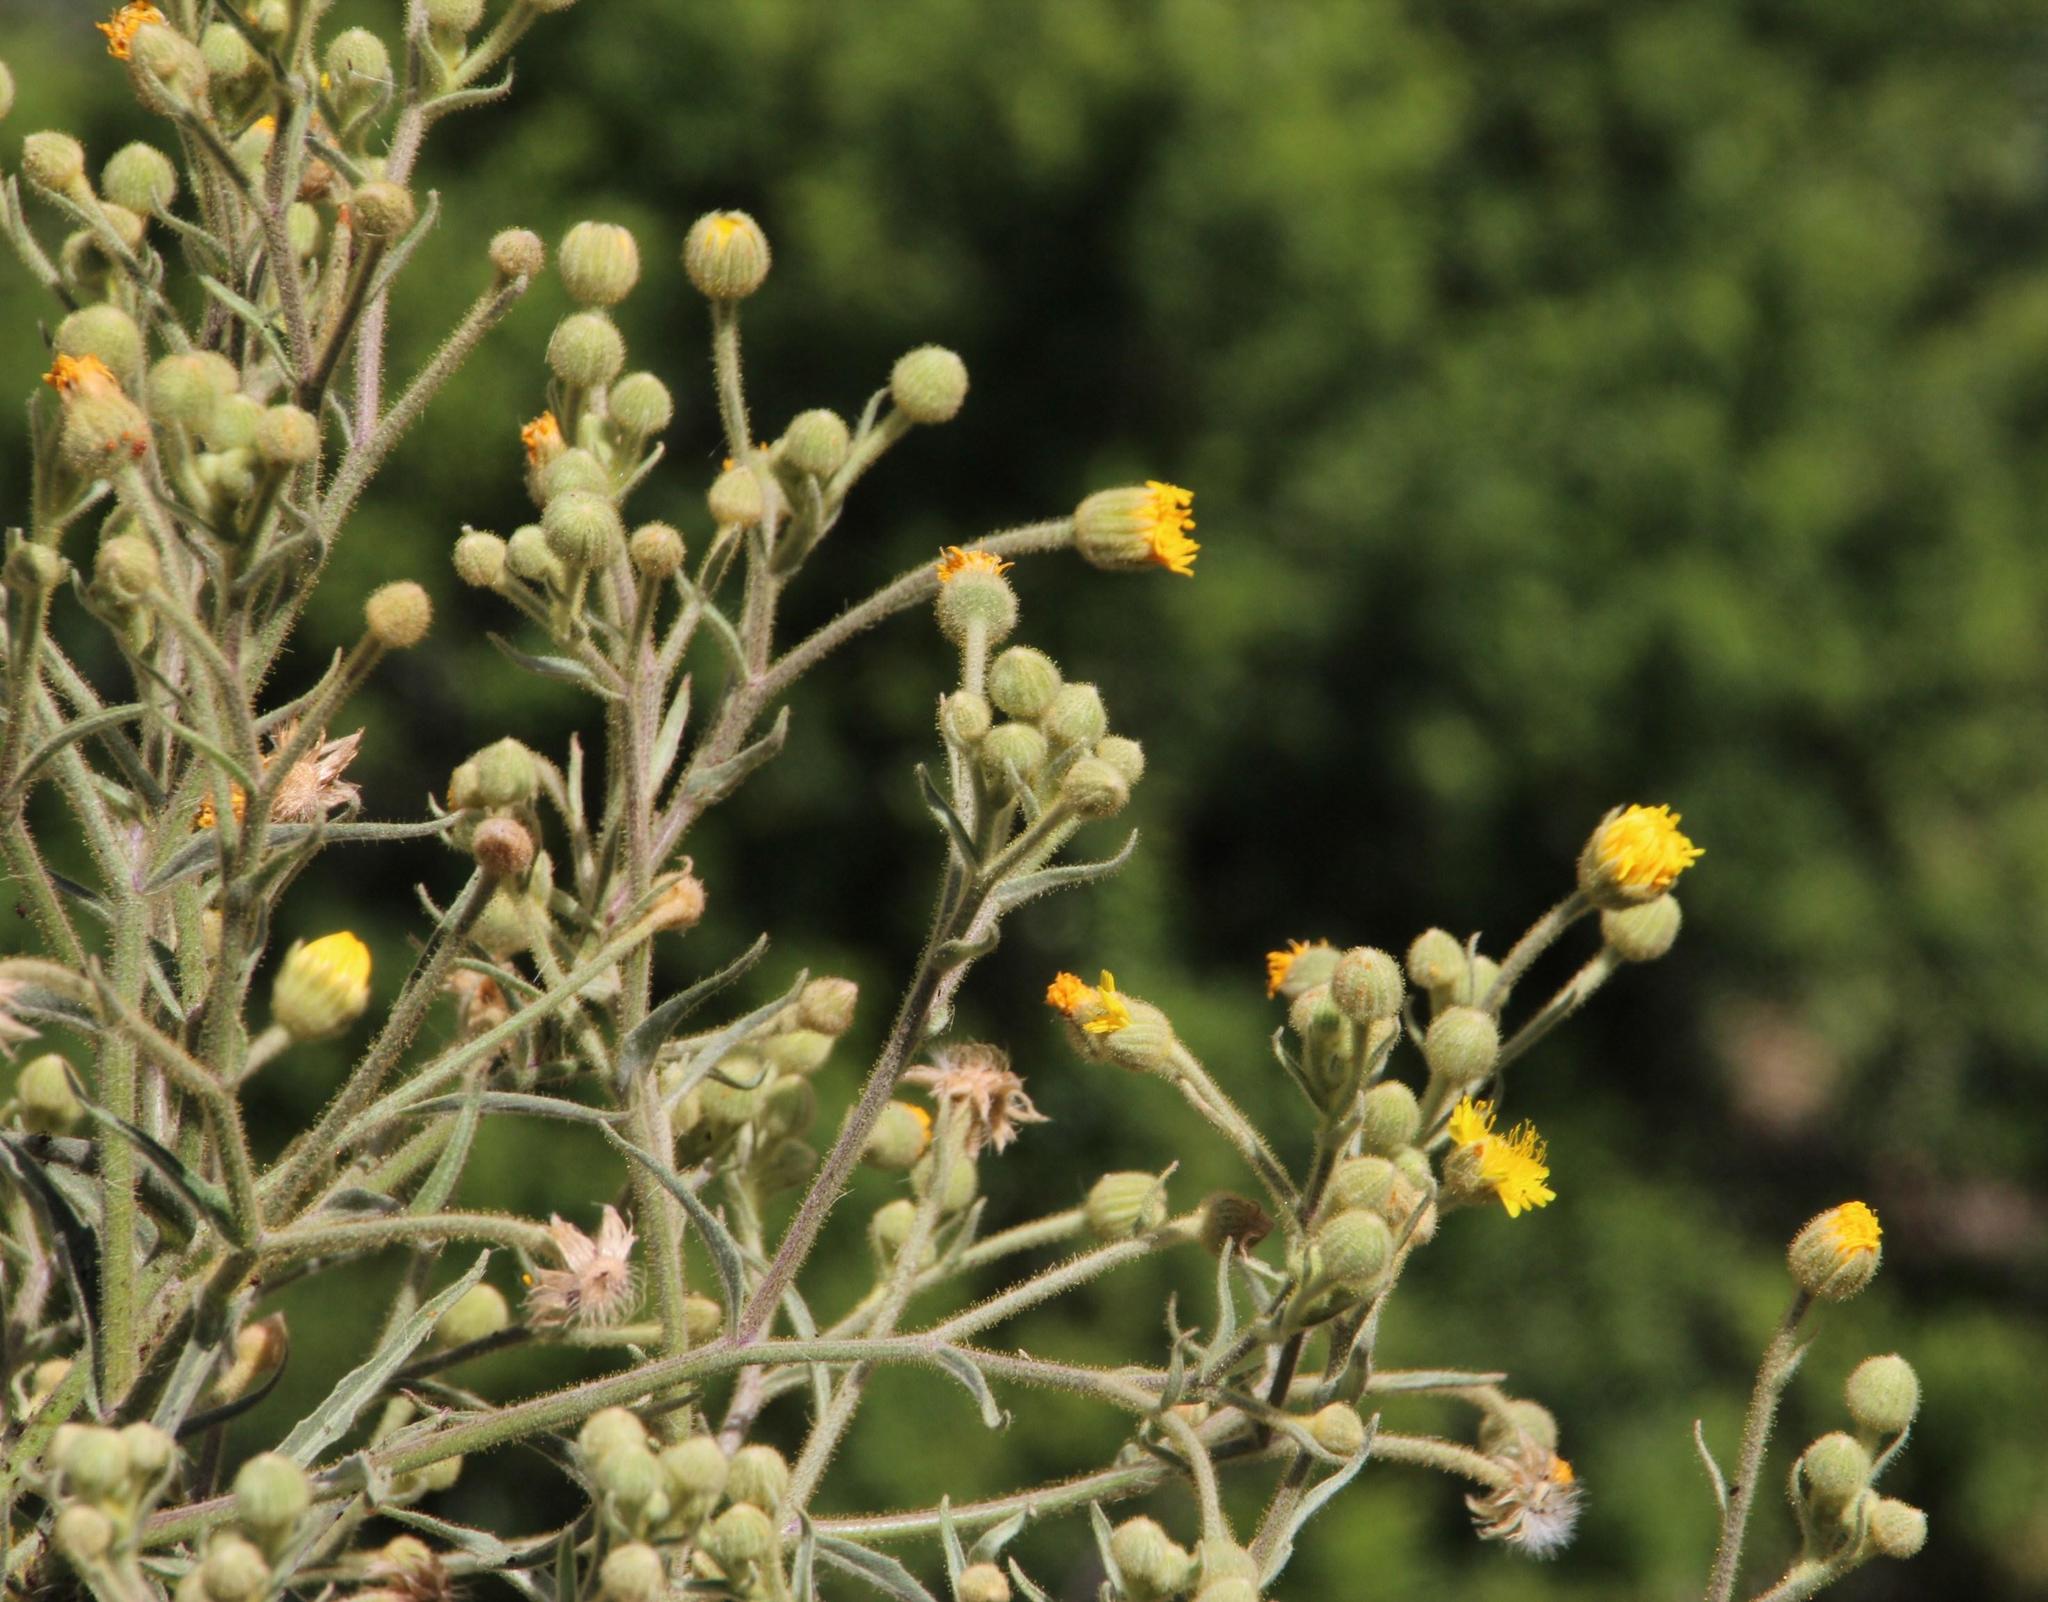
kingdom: Plantae
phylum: Tracheophyta
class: Magnoliopsida
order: Asterales
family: Asteraceae
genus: Andryala
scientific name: Andryala glandulosa
